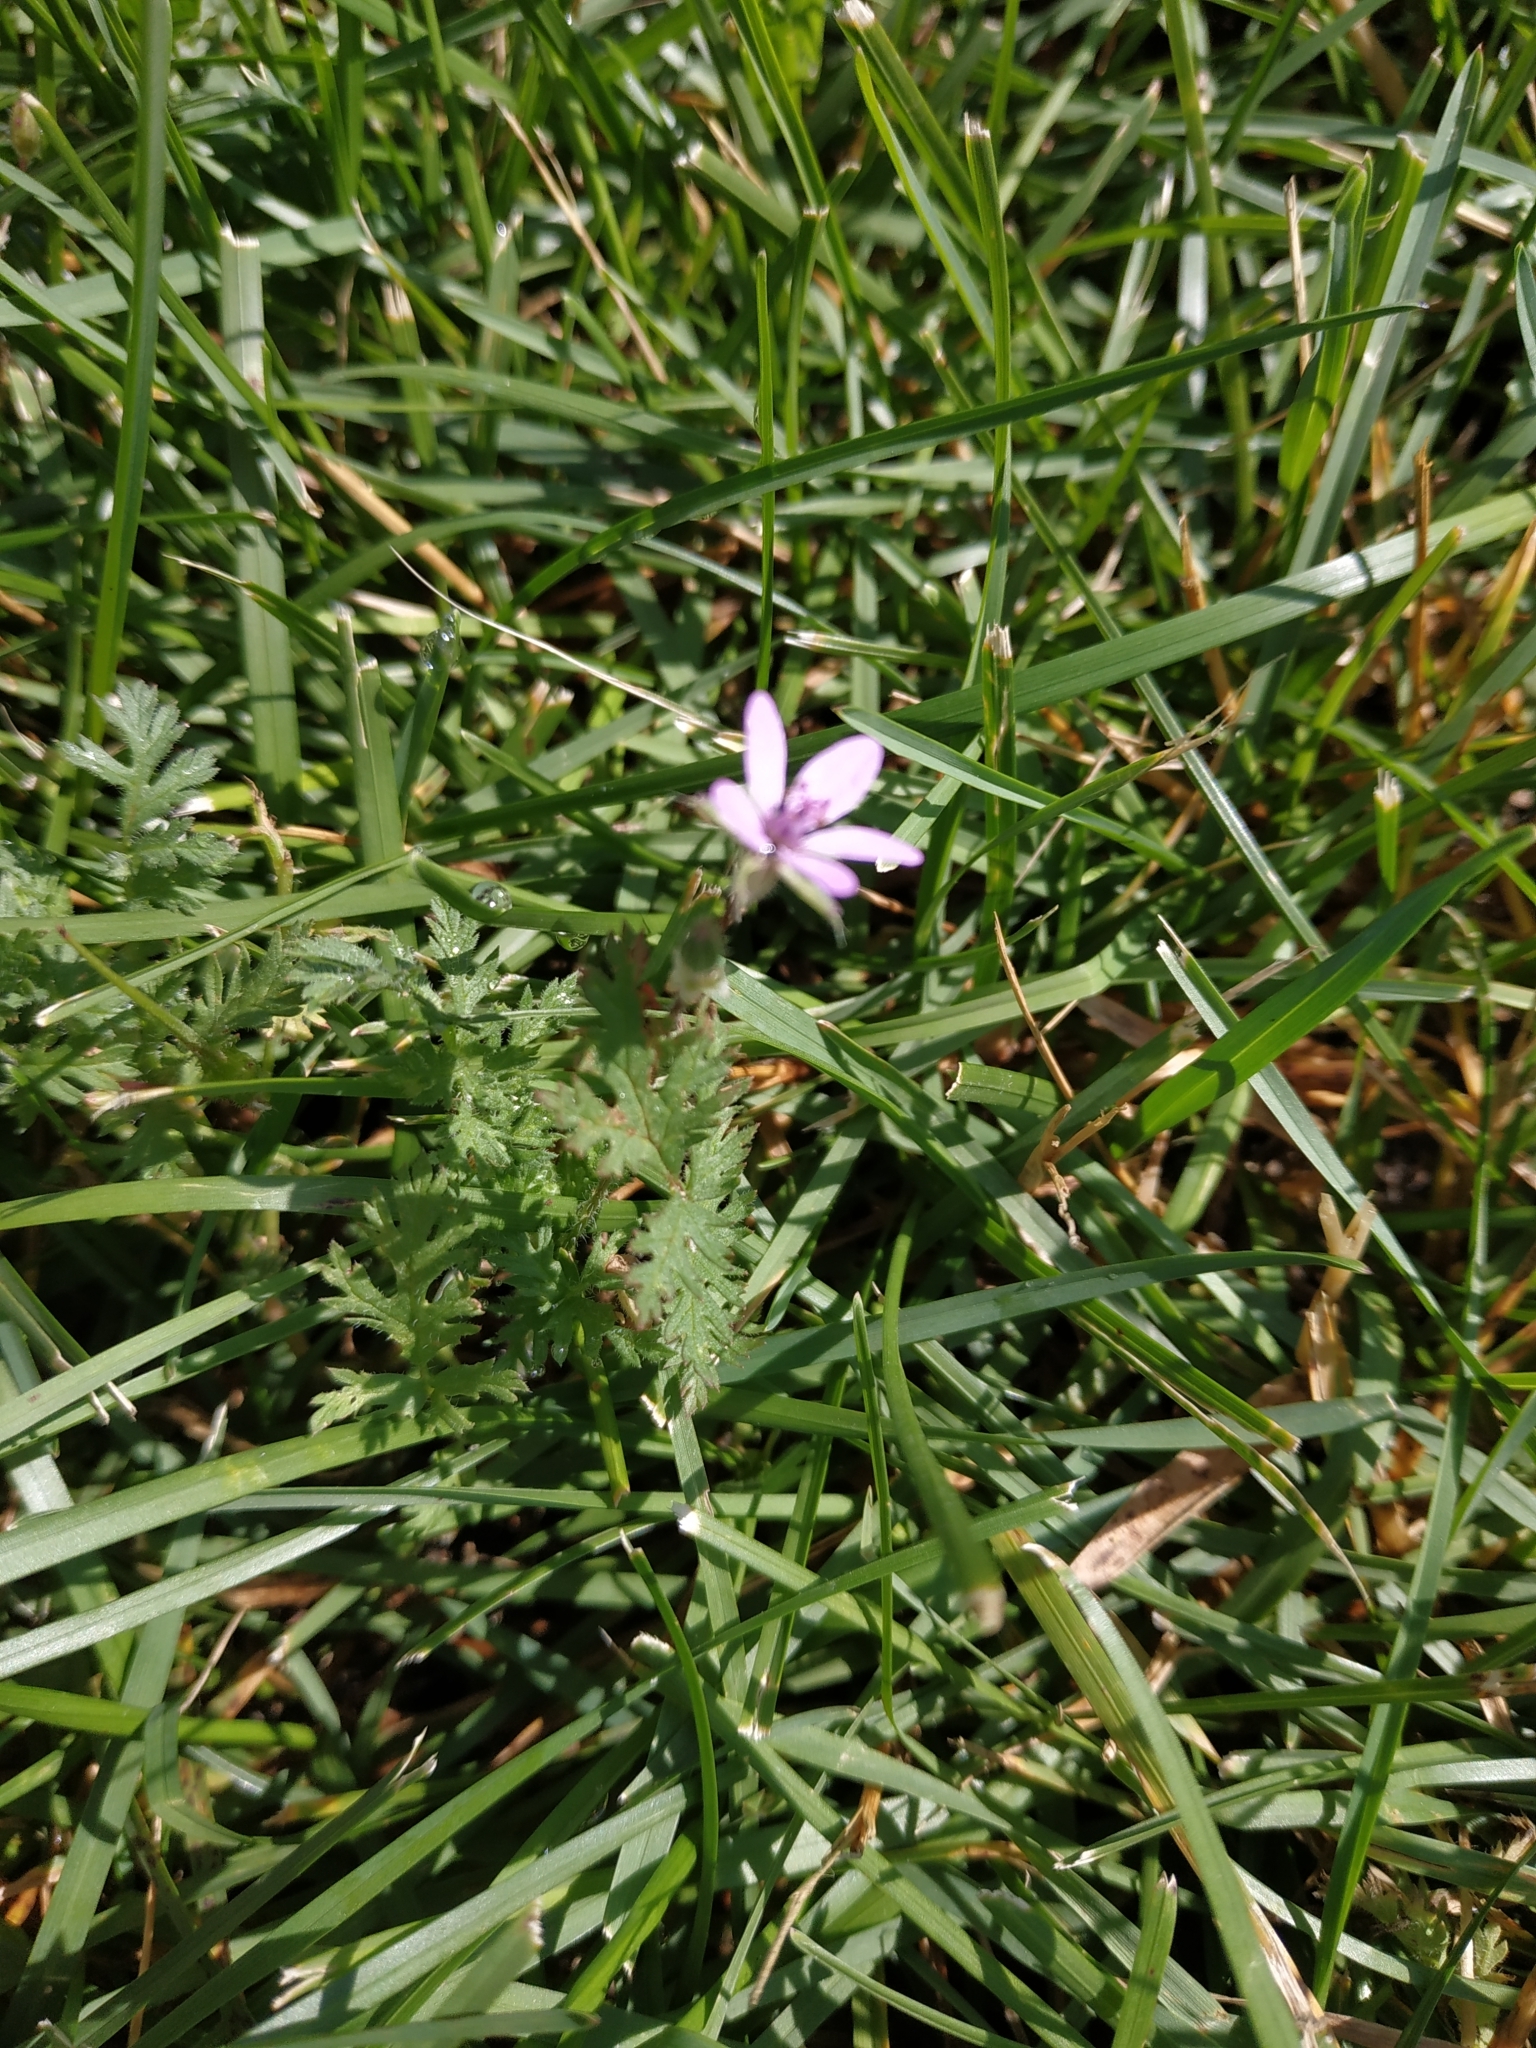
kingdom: Plantae
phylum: Tracheophyta
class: Magnoliopsida
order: Geraniales
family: Geraniaceae
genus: Erodium
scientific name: Erodium cicutarium
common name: Common stork's-bill
